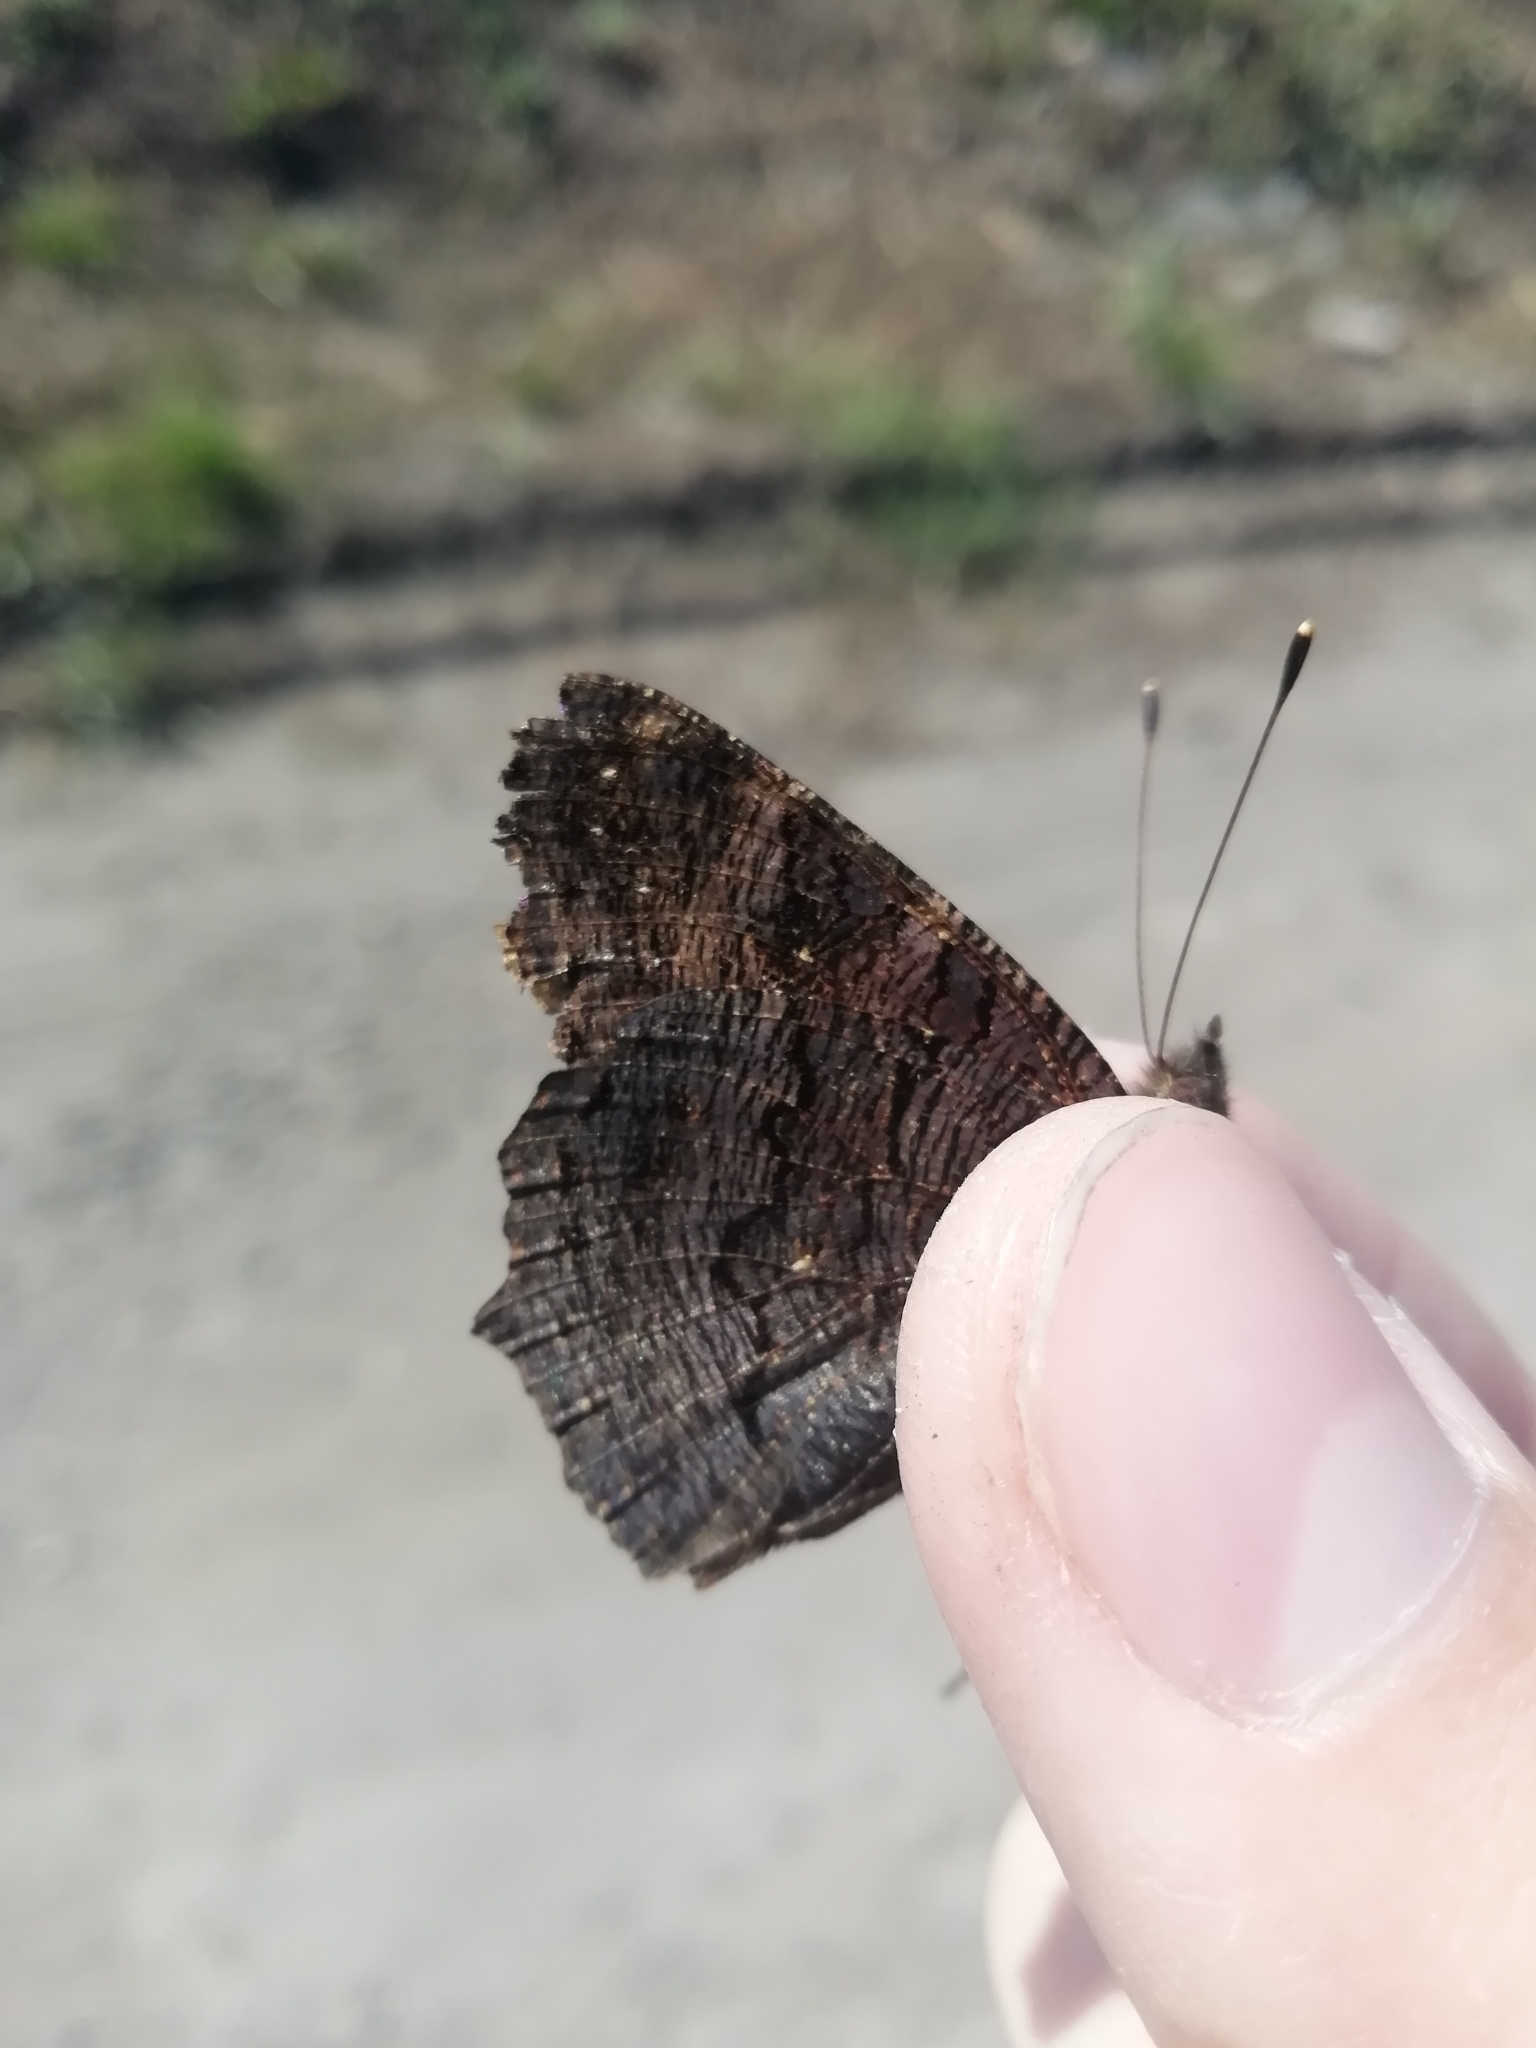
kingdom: Animalia
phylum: Arthropoda
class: Insecta
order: Lepidoptera
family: Nymphalidae
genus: Aglais
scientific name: Aglais io
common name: Peacock
